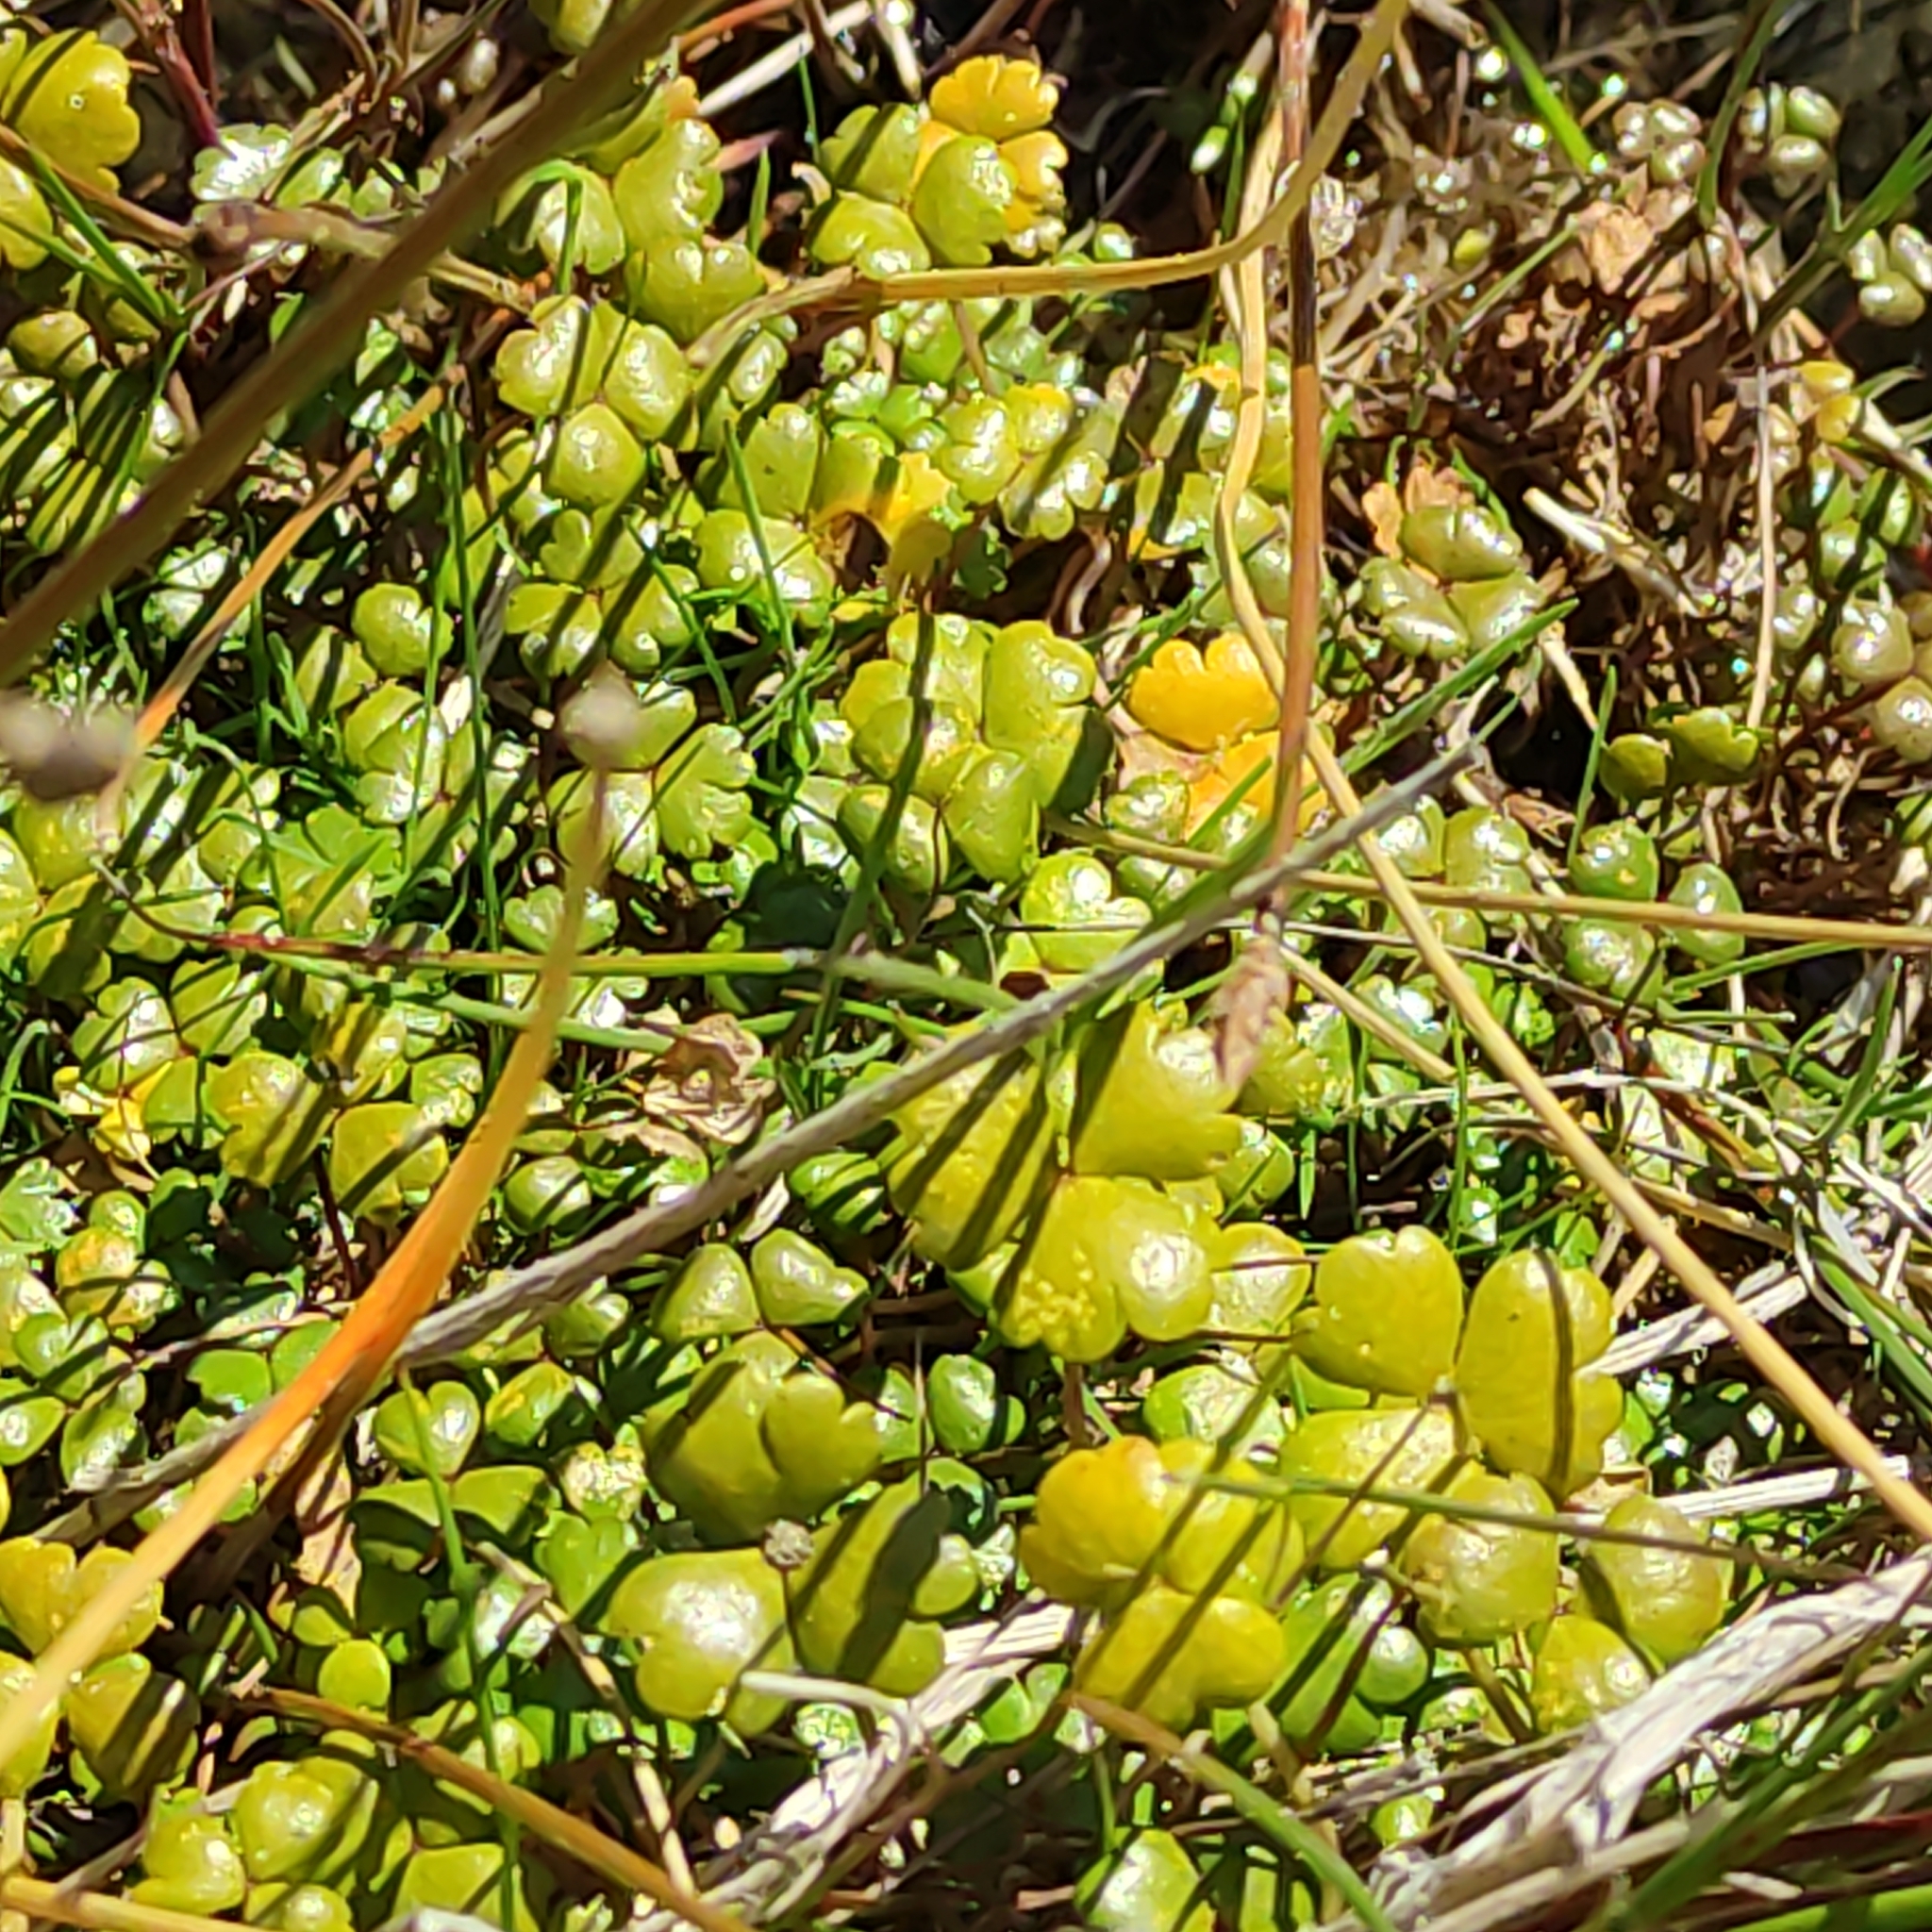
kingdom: Plantae
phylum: Tracheophyta
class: Magnoliopsida
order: Apiales
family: Araliaceae
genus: Hydrocotyle
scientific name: Hydrocotyle sulcata
